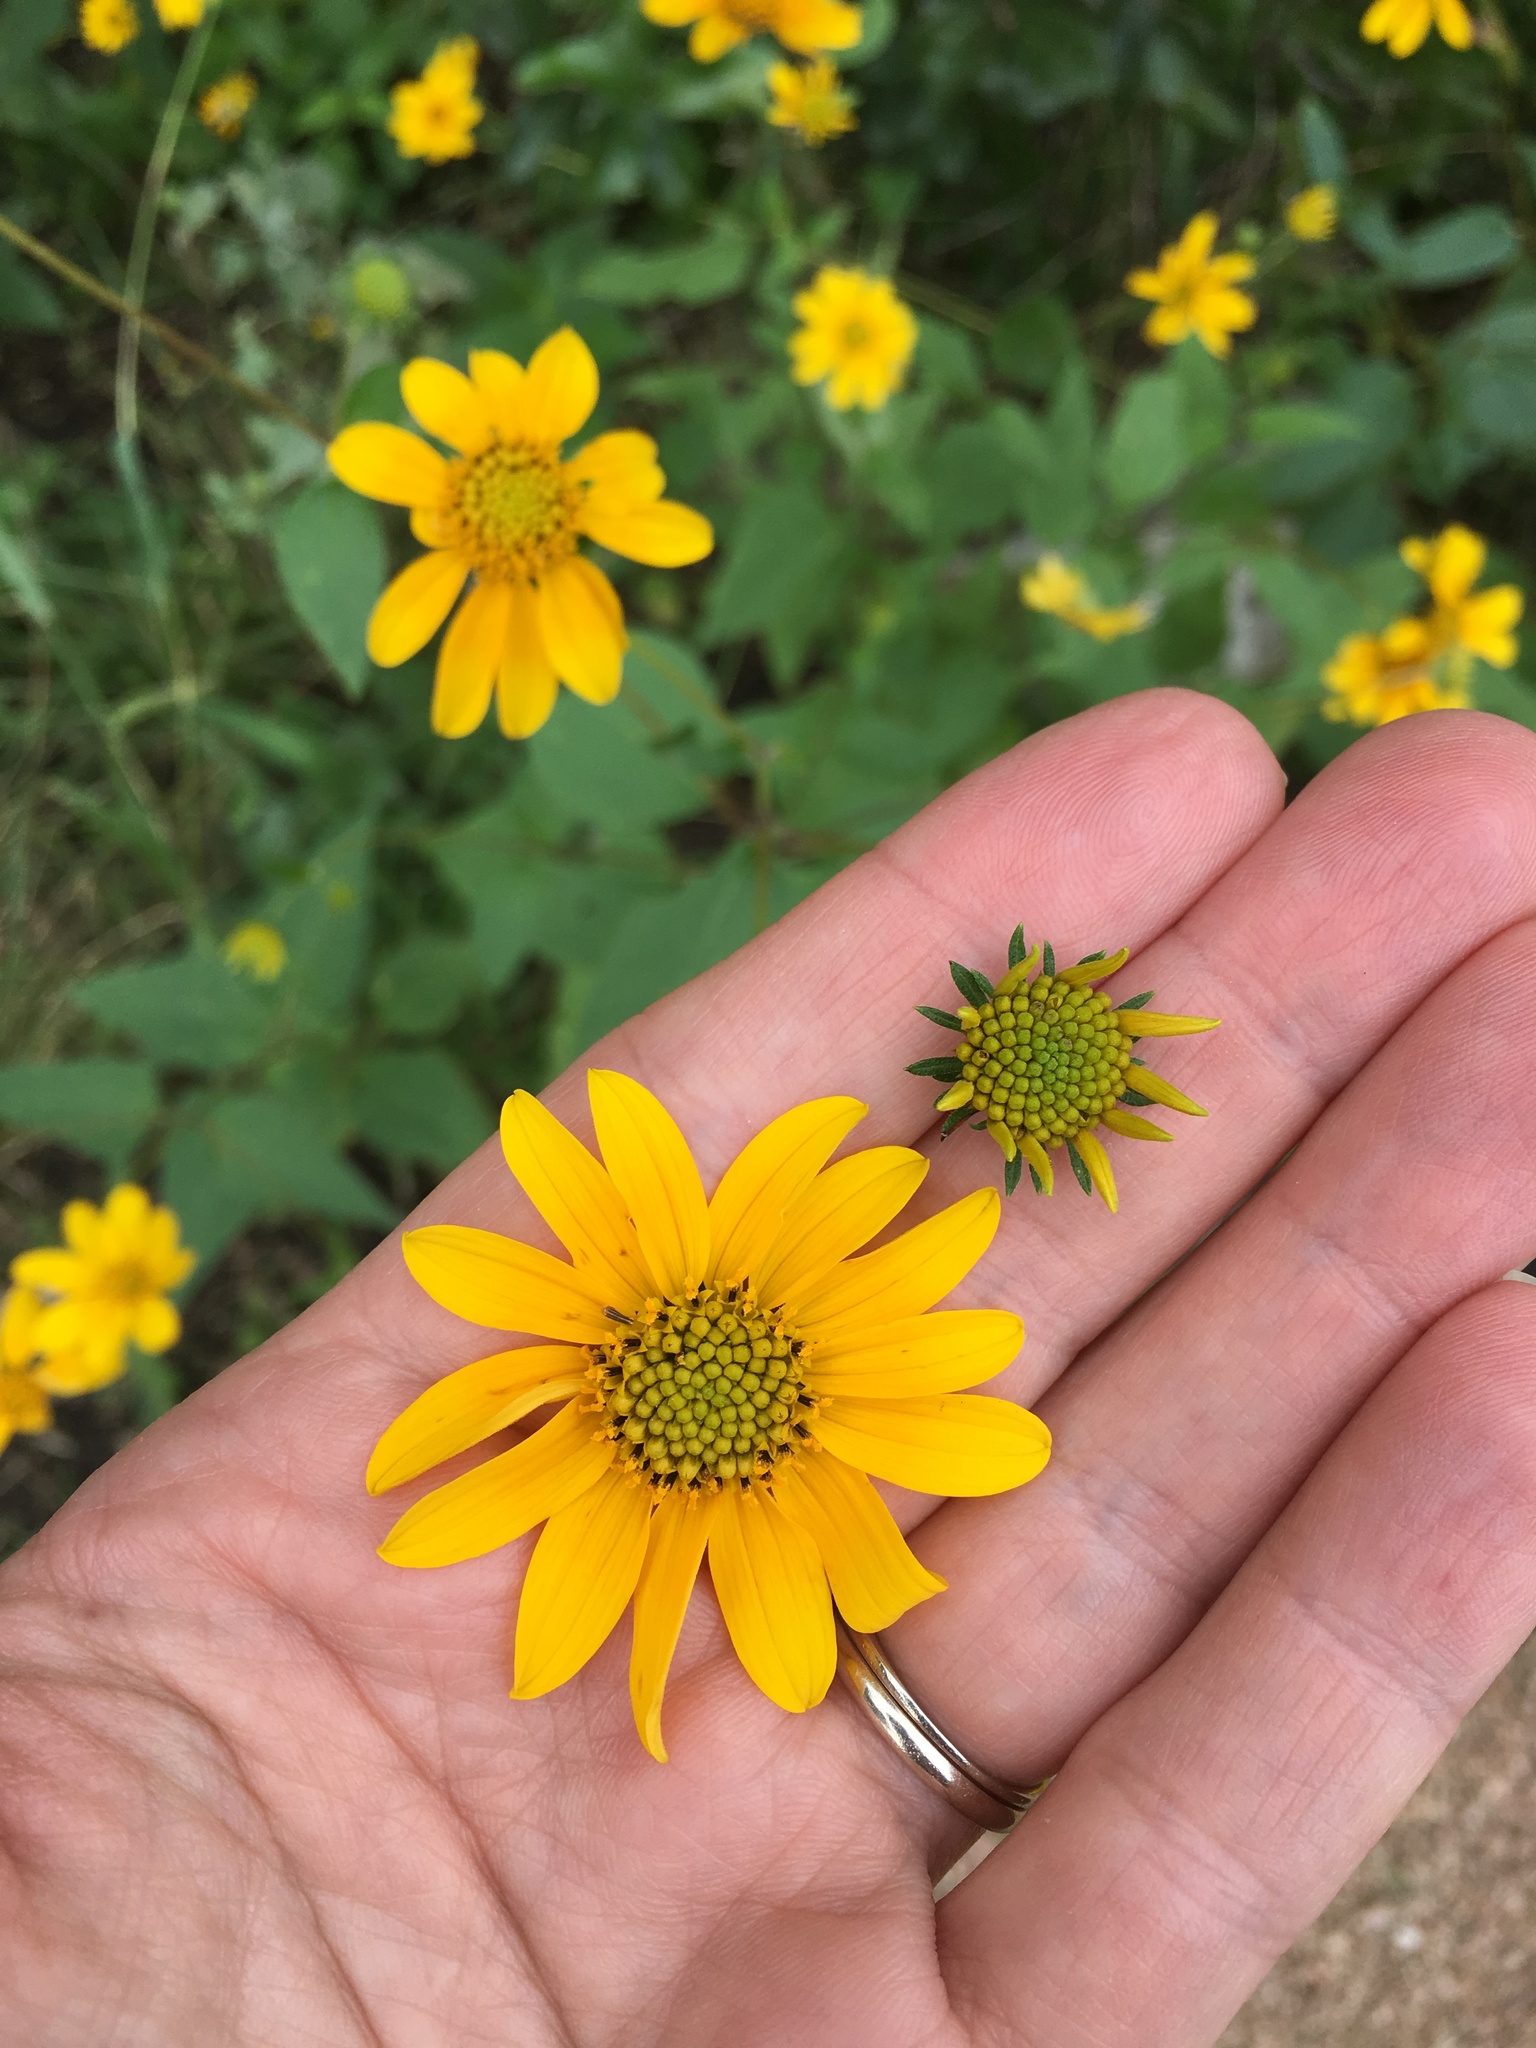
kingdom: Plantae
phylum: Tracheophyta
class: Magnoliopsida
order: Asterales
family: Asteraceae
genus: Viguiera
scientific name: Viguiera dentata
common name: Toothleaf
